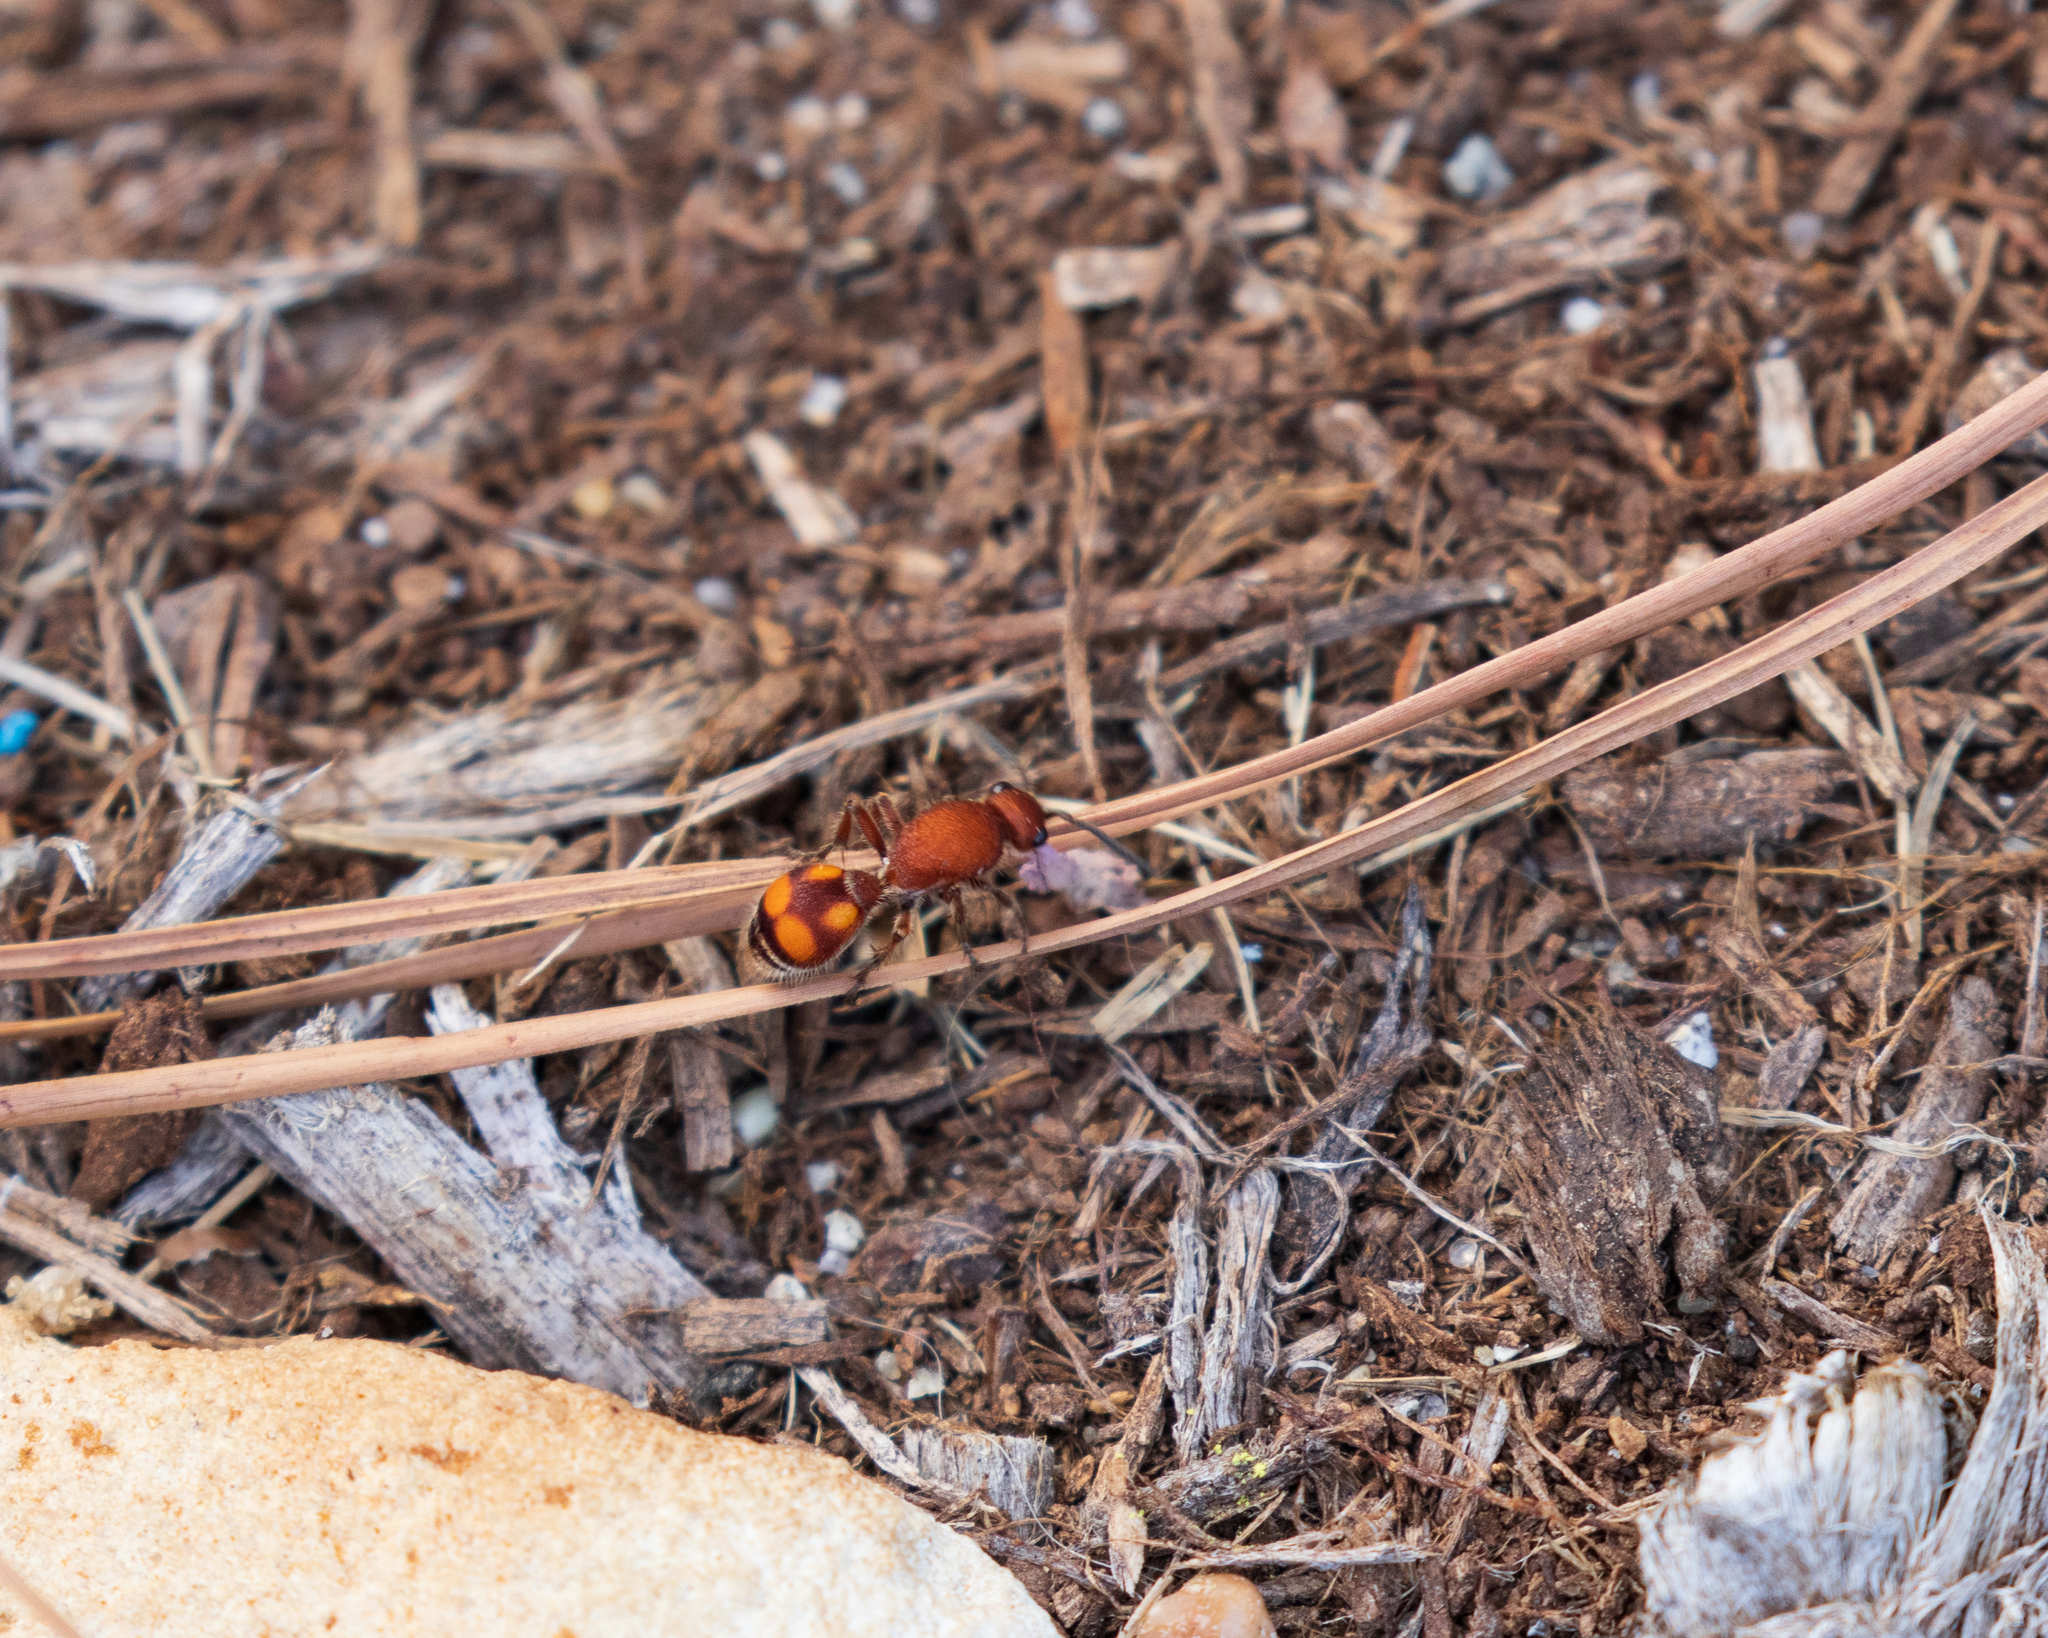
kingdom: Animalia
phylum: Arthropoda
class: Insecta
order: Hymenoptera
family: Mutillidae
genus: Dasymutilla
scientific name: Dasymutilla
